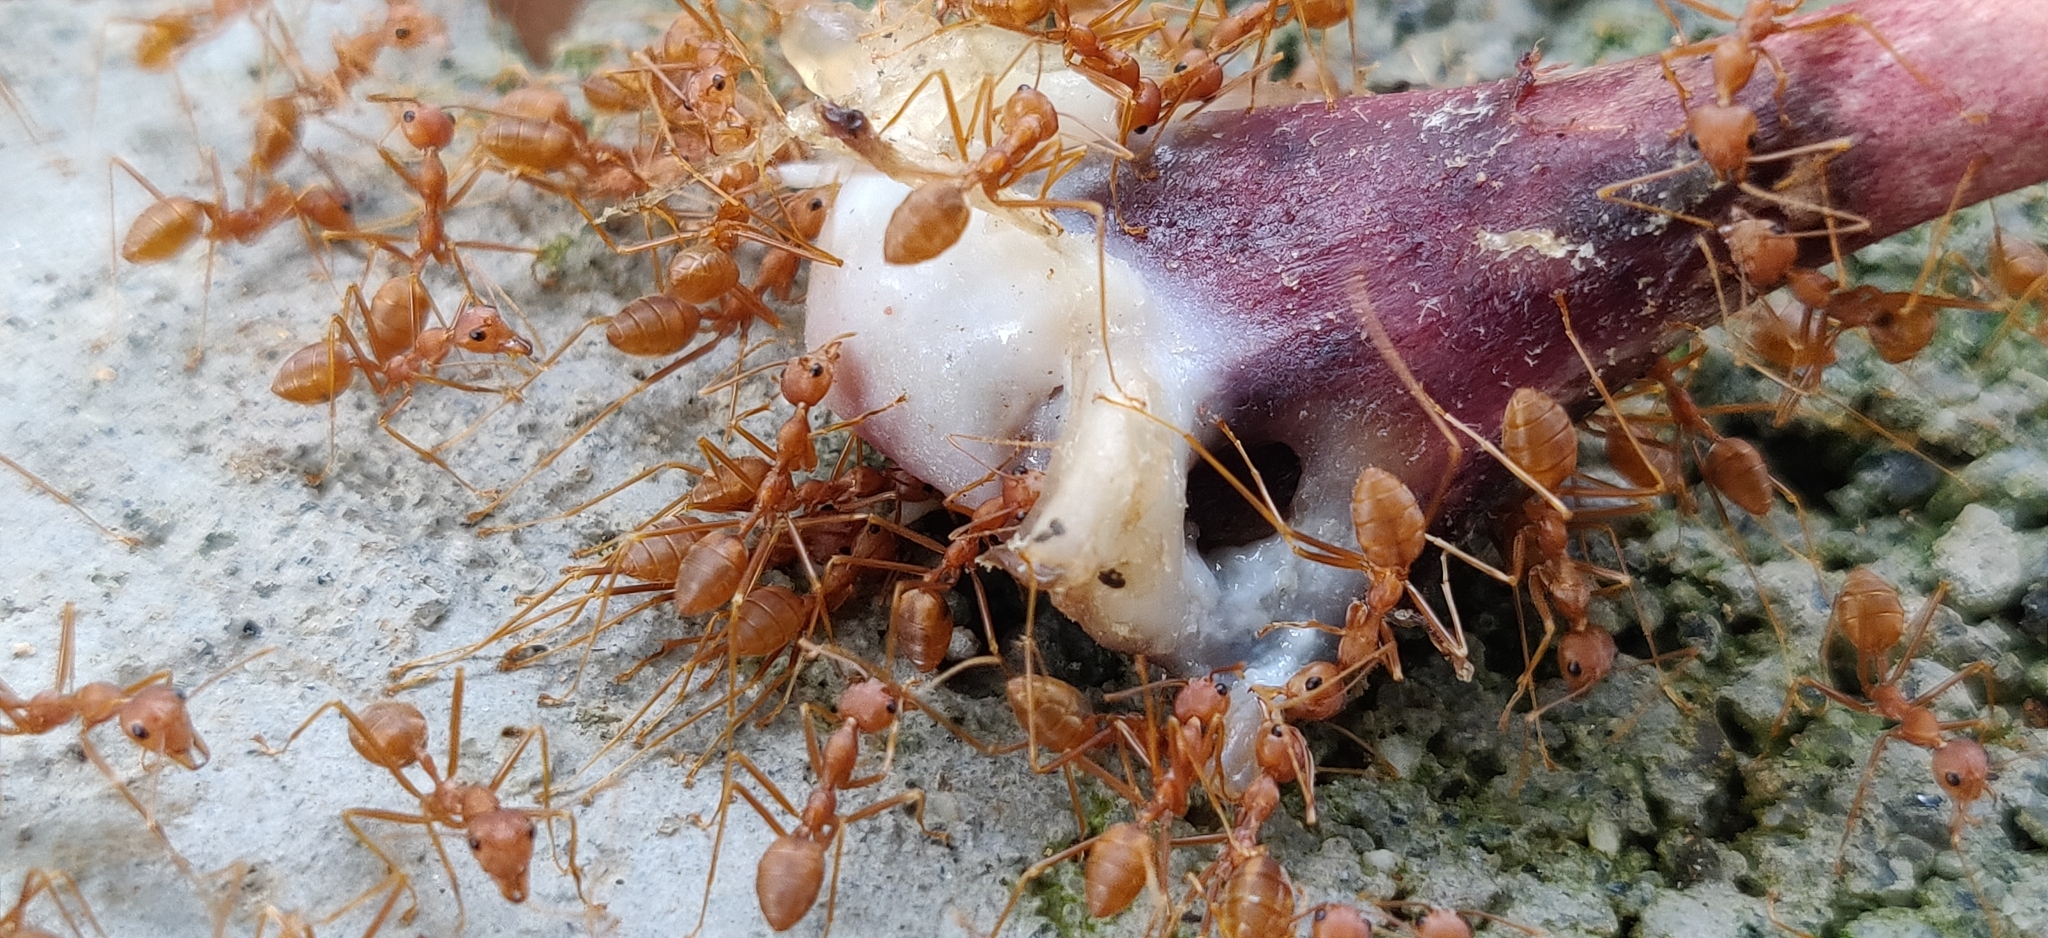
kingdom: Animalia
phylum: Arthropoda
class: Insecta
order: Hymenoptera
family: Formicidae
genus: Oecophylla
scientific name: Oecophylla smaragdina
